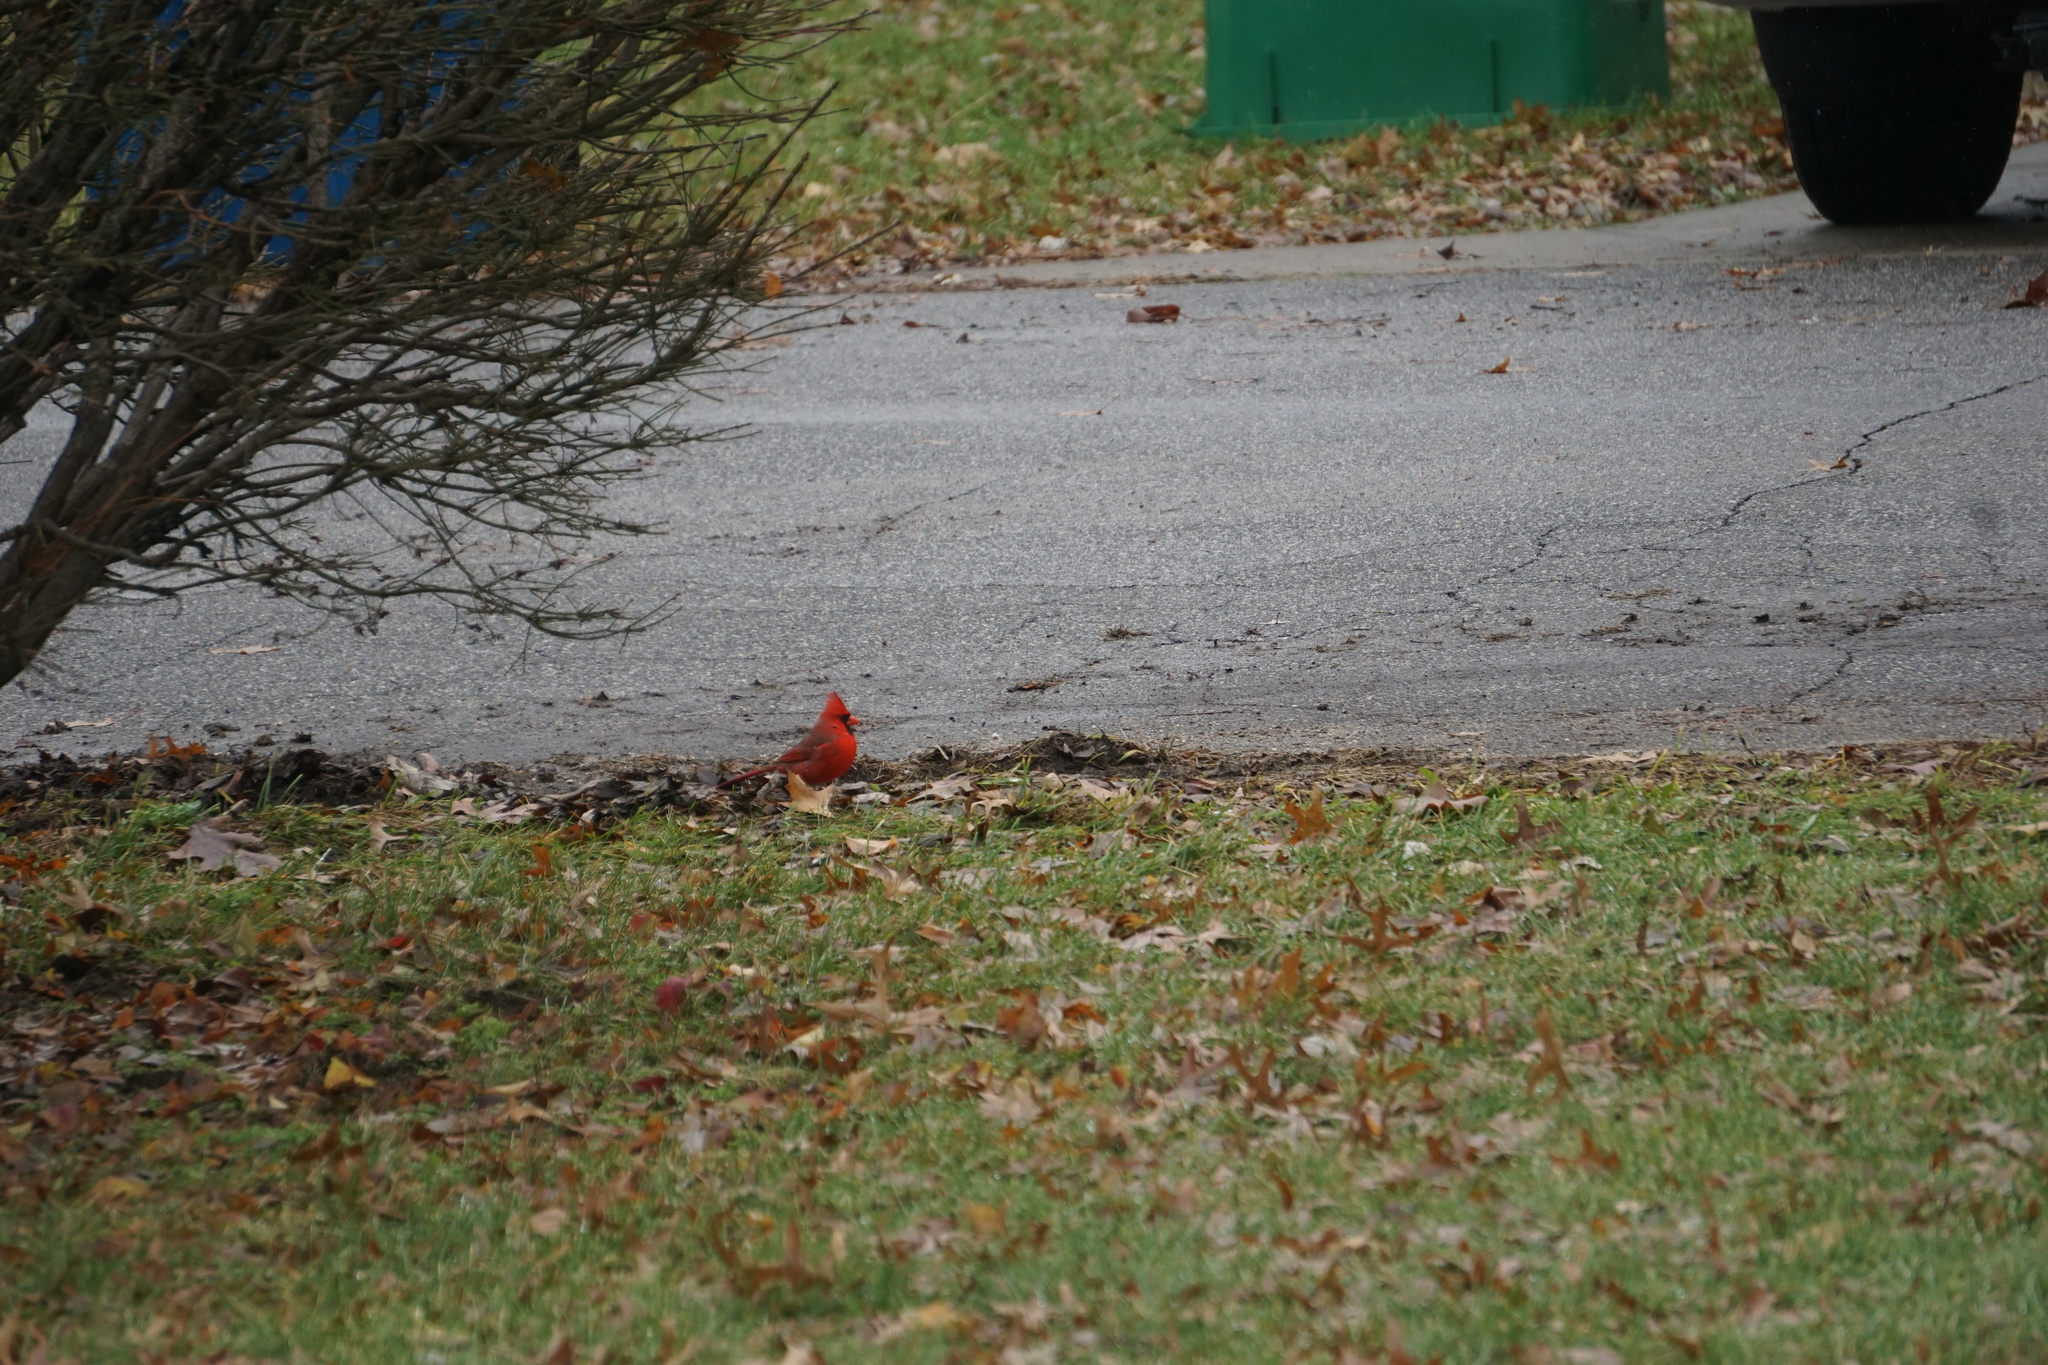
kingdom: Animalia
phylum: Chordata
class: Aves
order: Passeriformes
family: Cardinalidae
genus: Cardinalis
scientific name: Cardinalis cardinalis
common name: Northern cardinal
